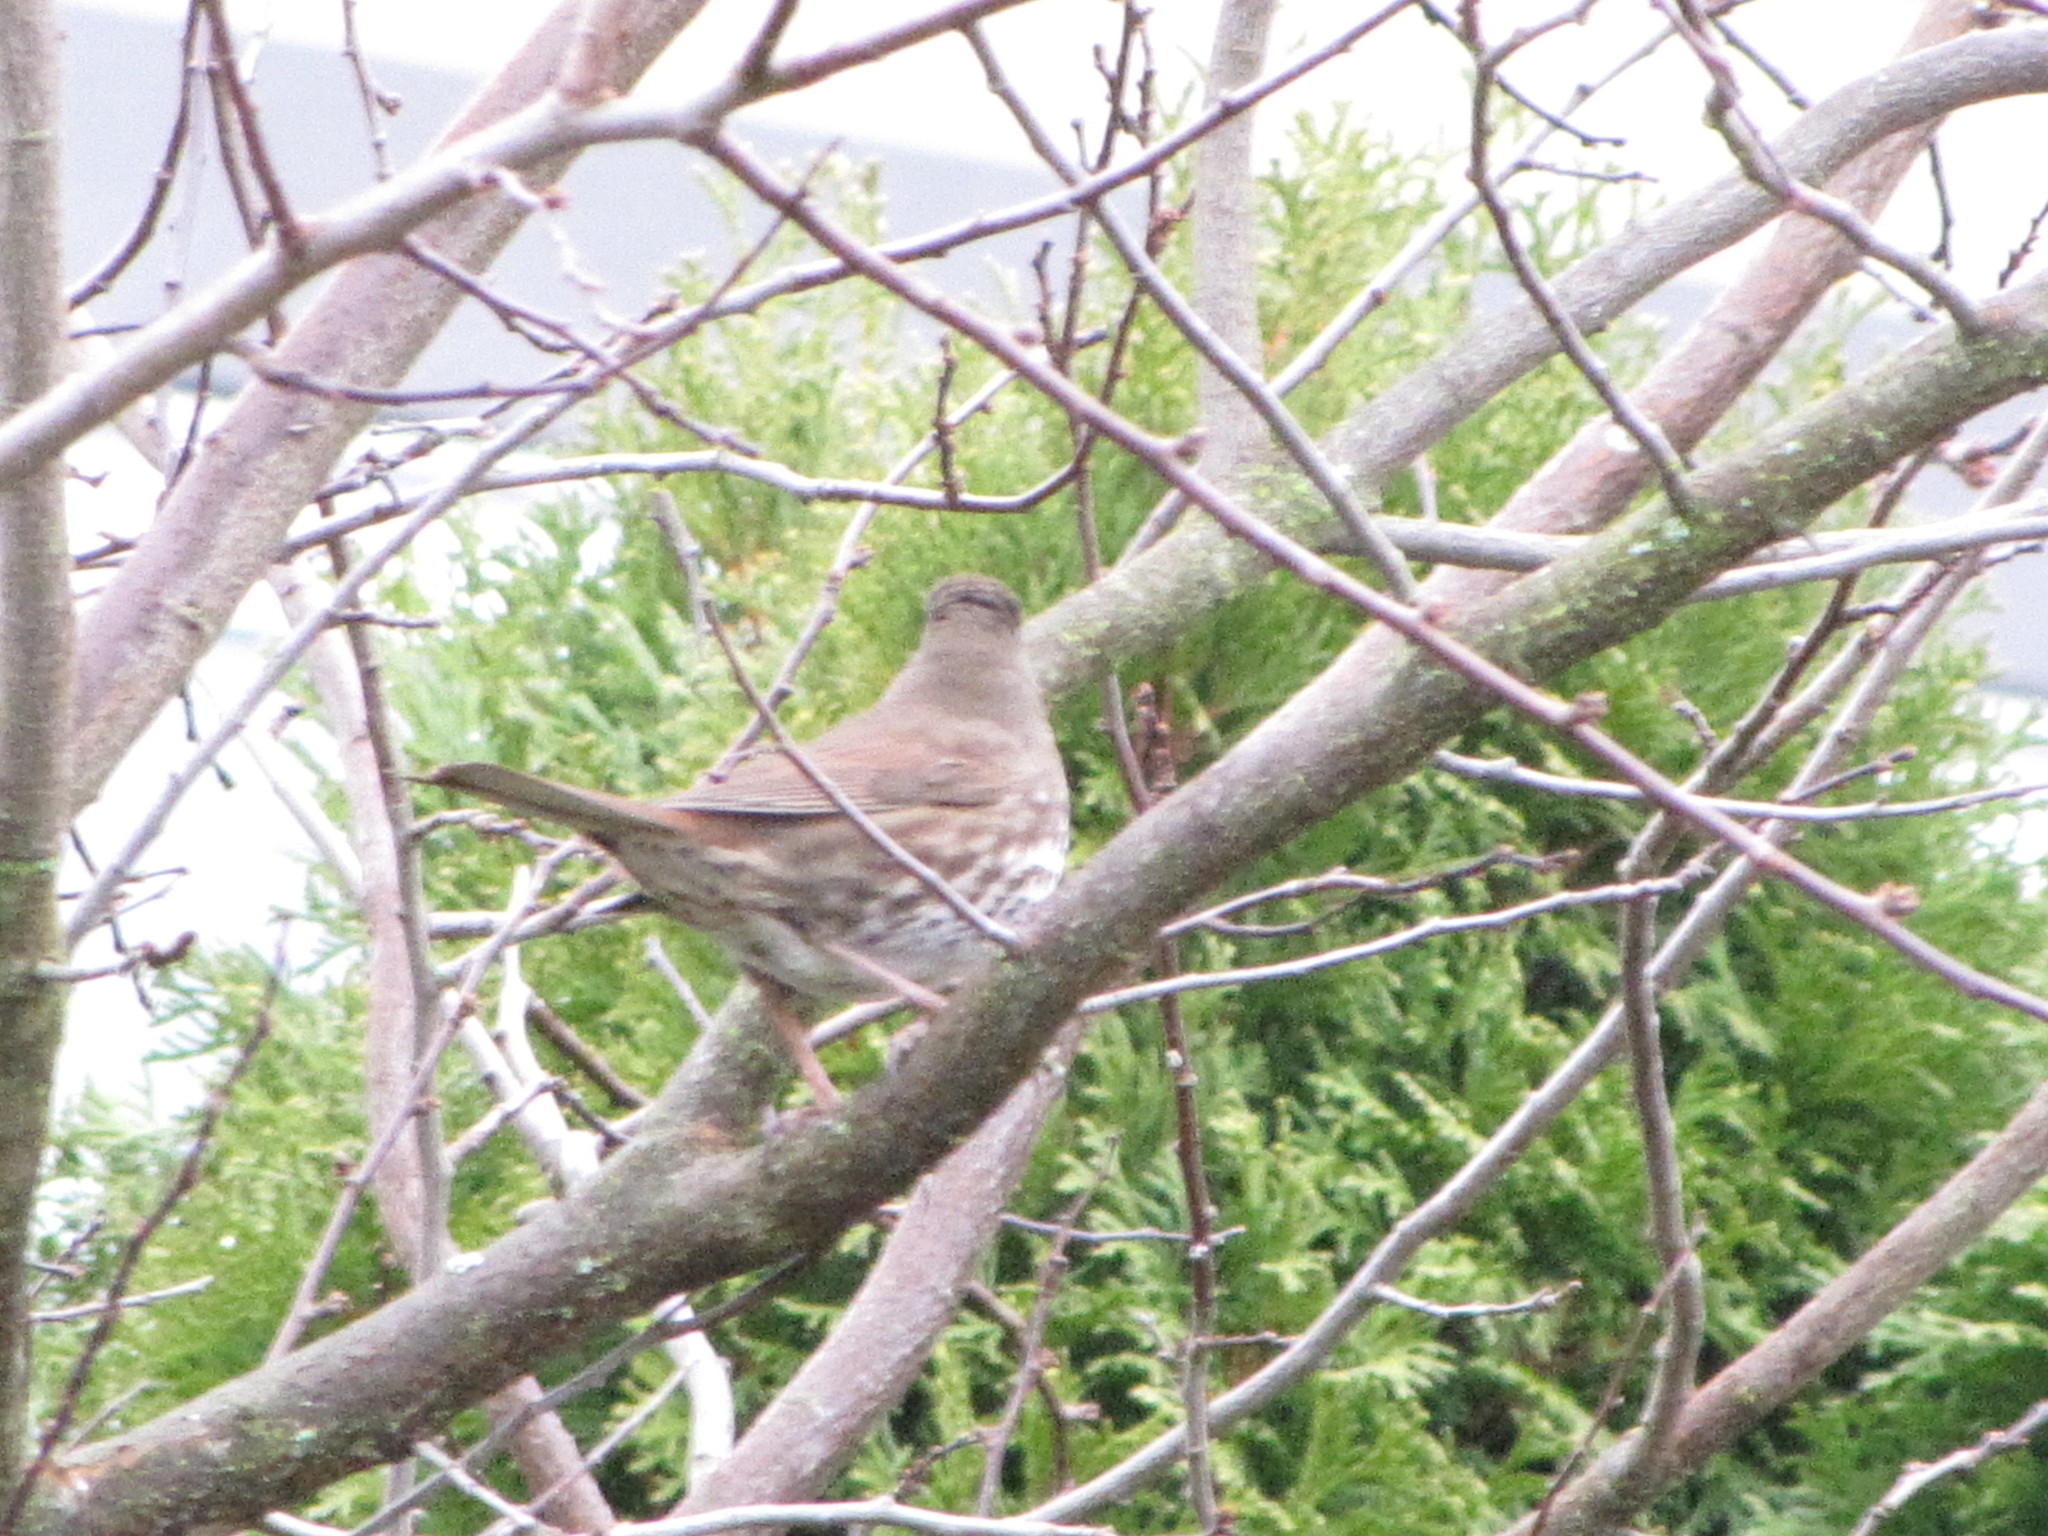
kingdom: Animalia
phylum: Chordata
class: Aves
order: Passeriformes
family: Passerellidae
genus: Passerella
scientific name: Passerella iliaca
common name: Fox sparrow
